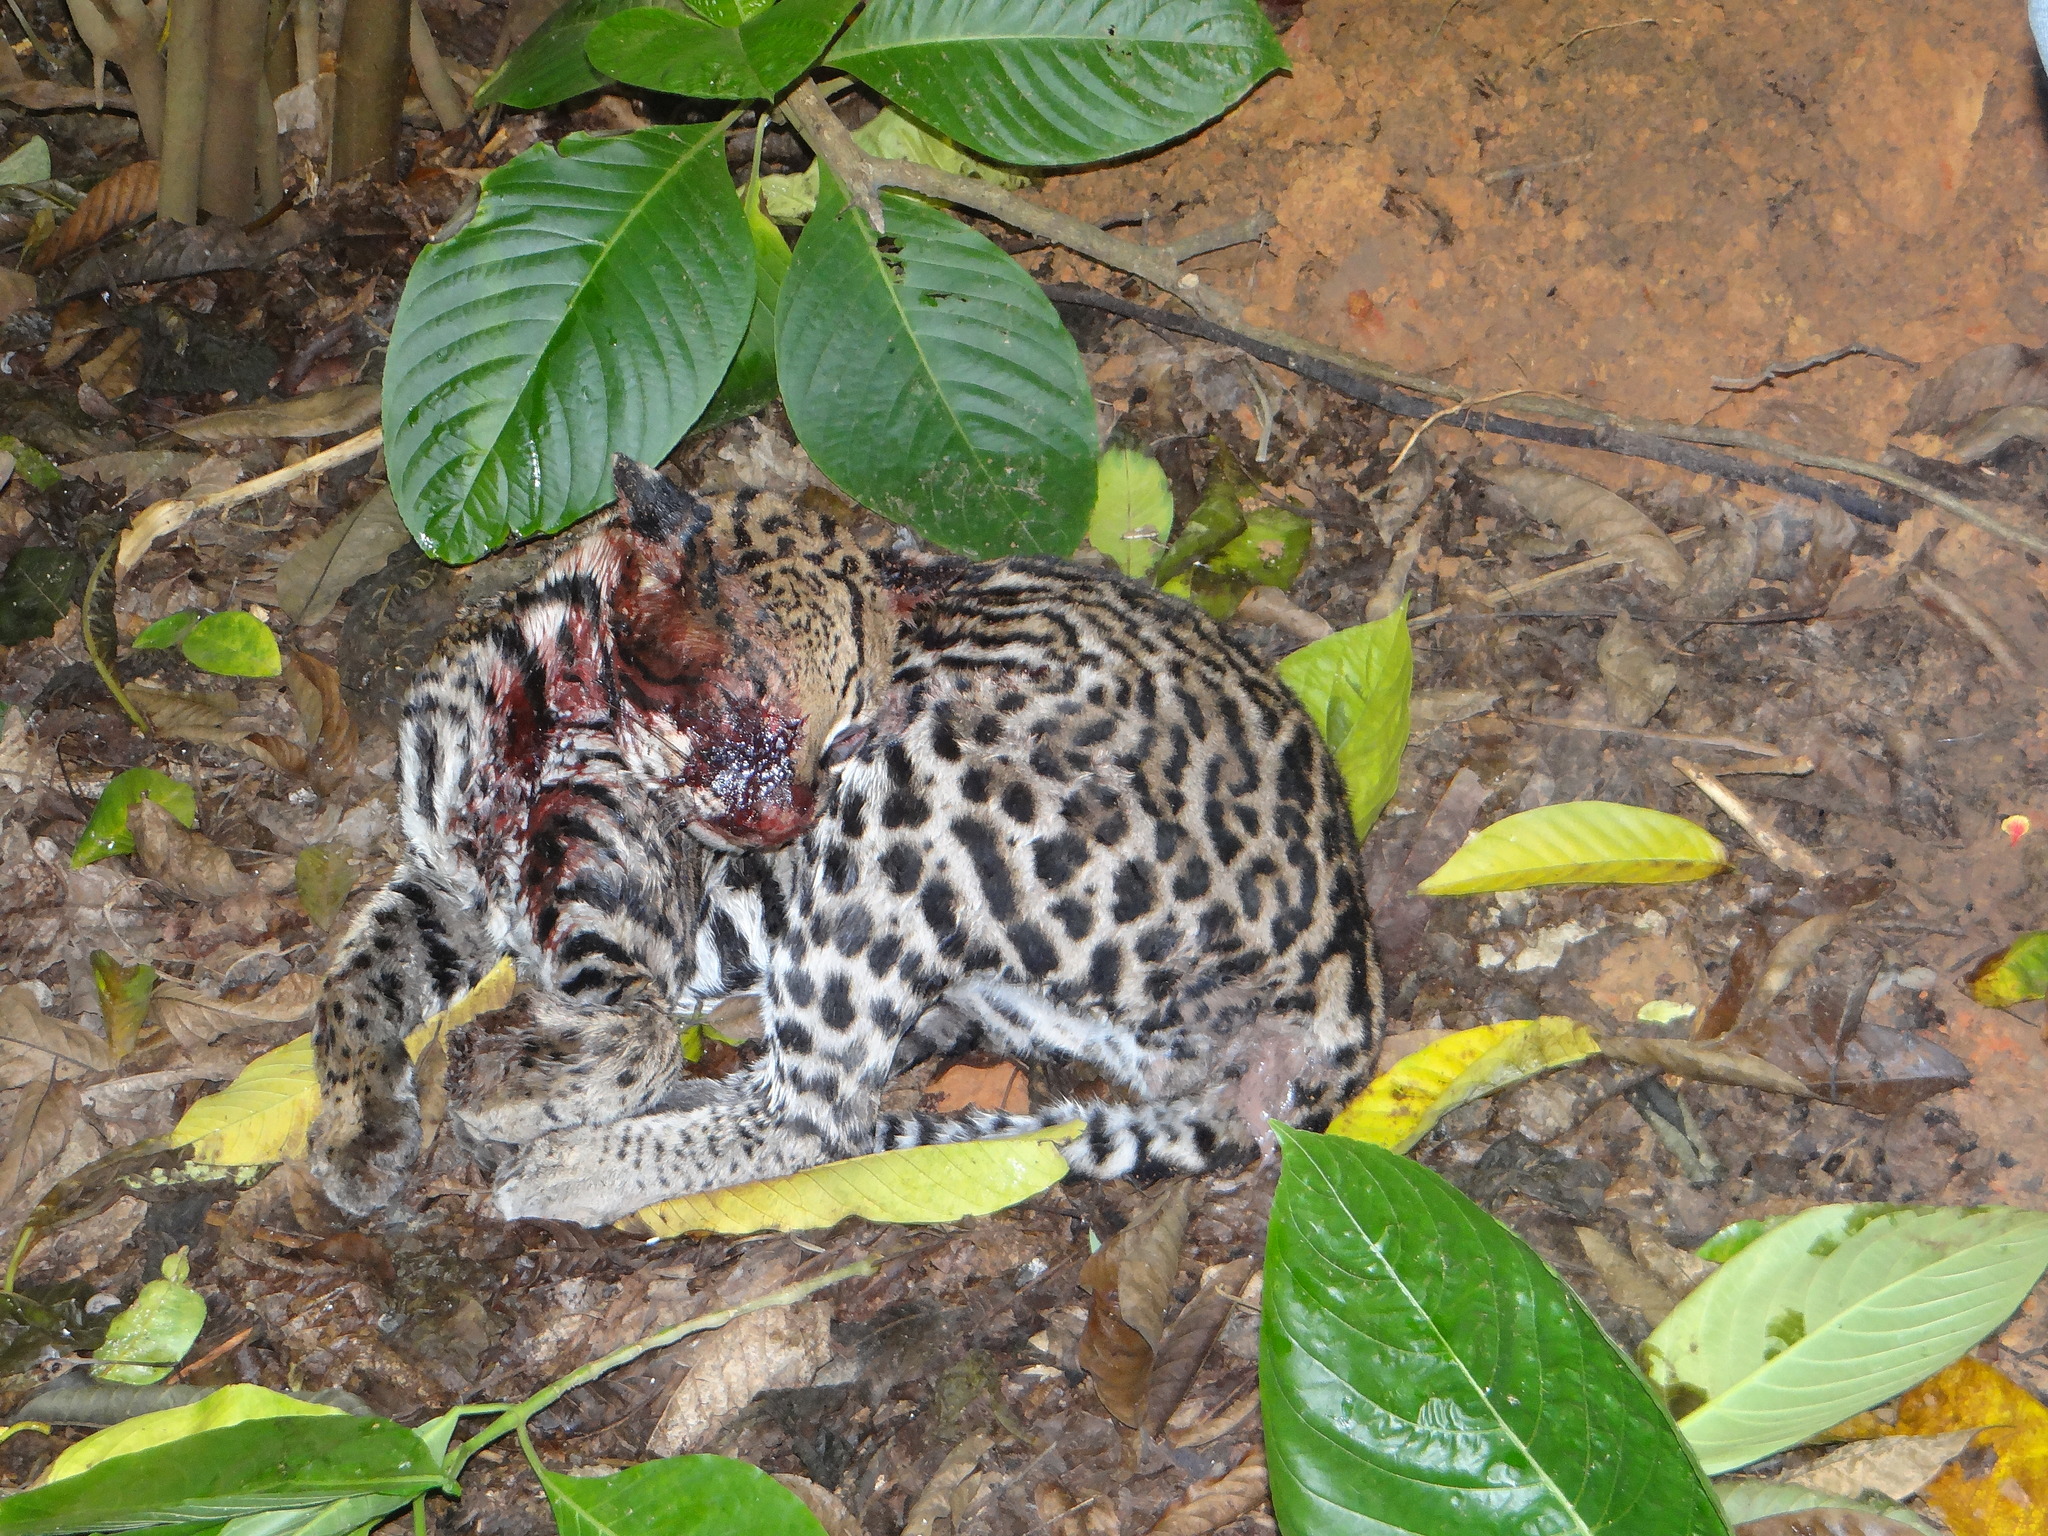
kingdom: Animalia
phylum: Chordata
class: Mammalia
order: Carnivora
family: Felidae
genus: Leopardus
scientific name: Leopardus pardalis
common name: Ocelot
